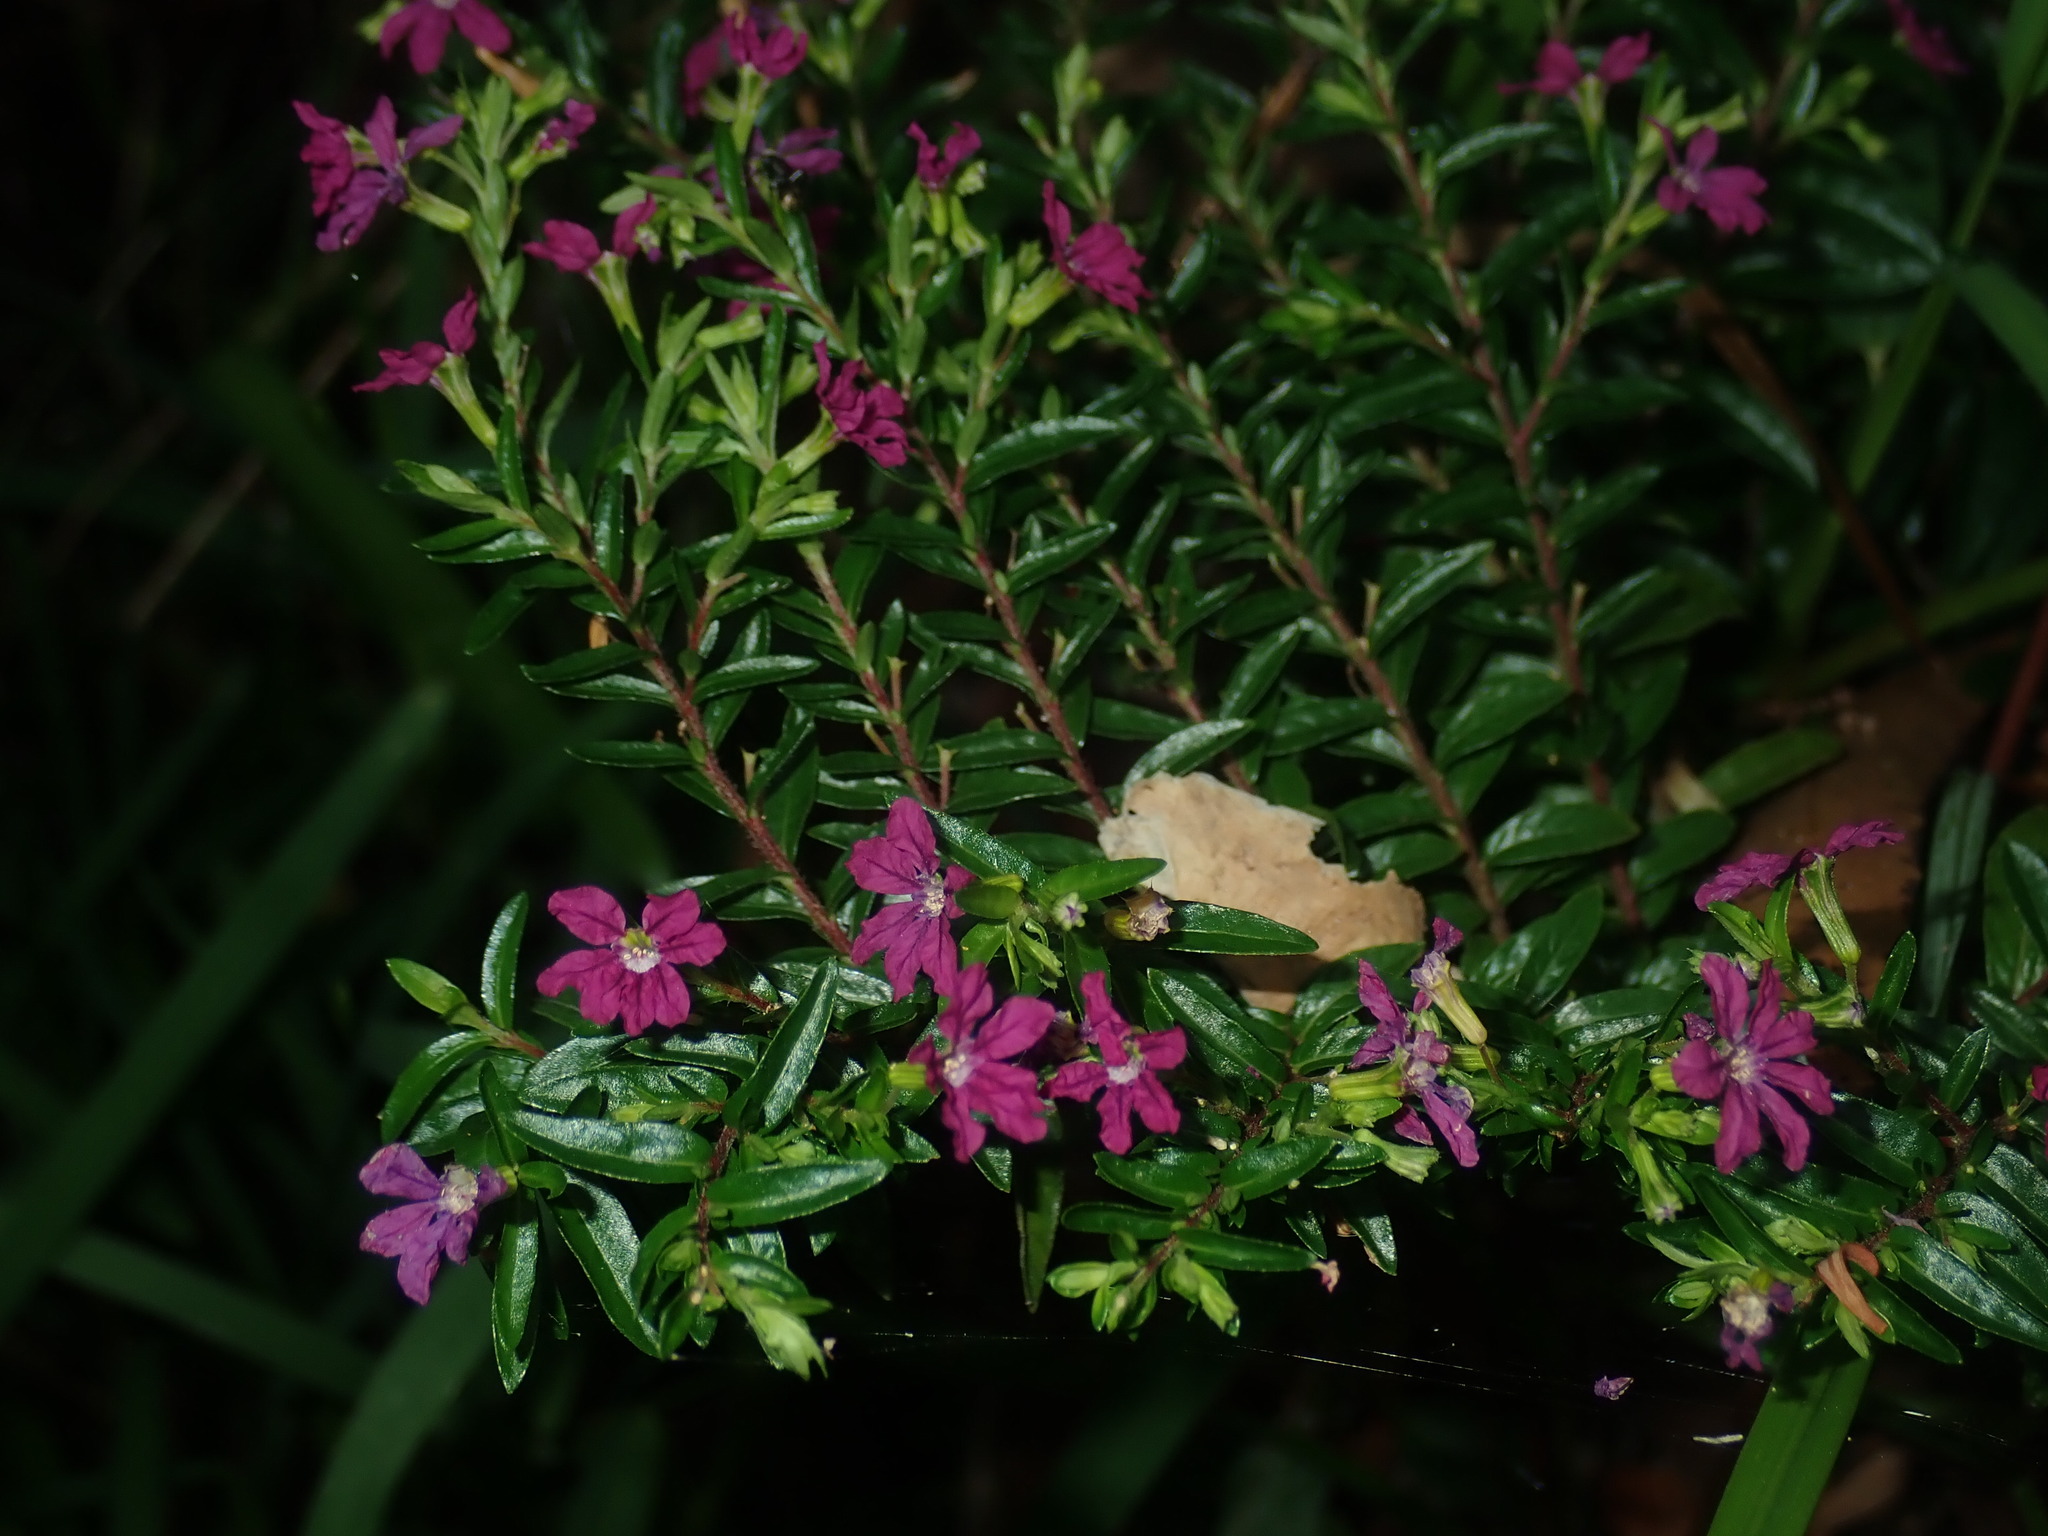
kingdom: Plantae
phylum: Tracheophyta
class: Magnoliopsida
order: Myrtales
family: Lythraceae
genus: Cuphea
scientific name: Cuphea hyssopifolia
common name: False heather
